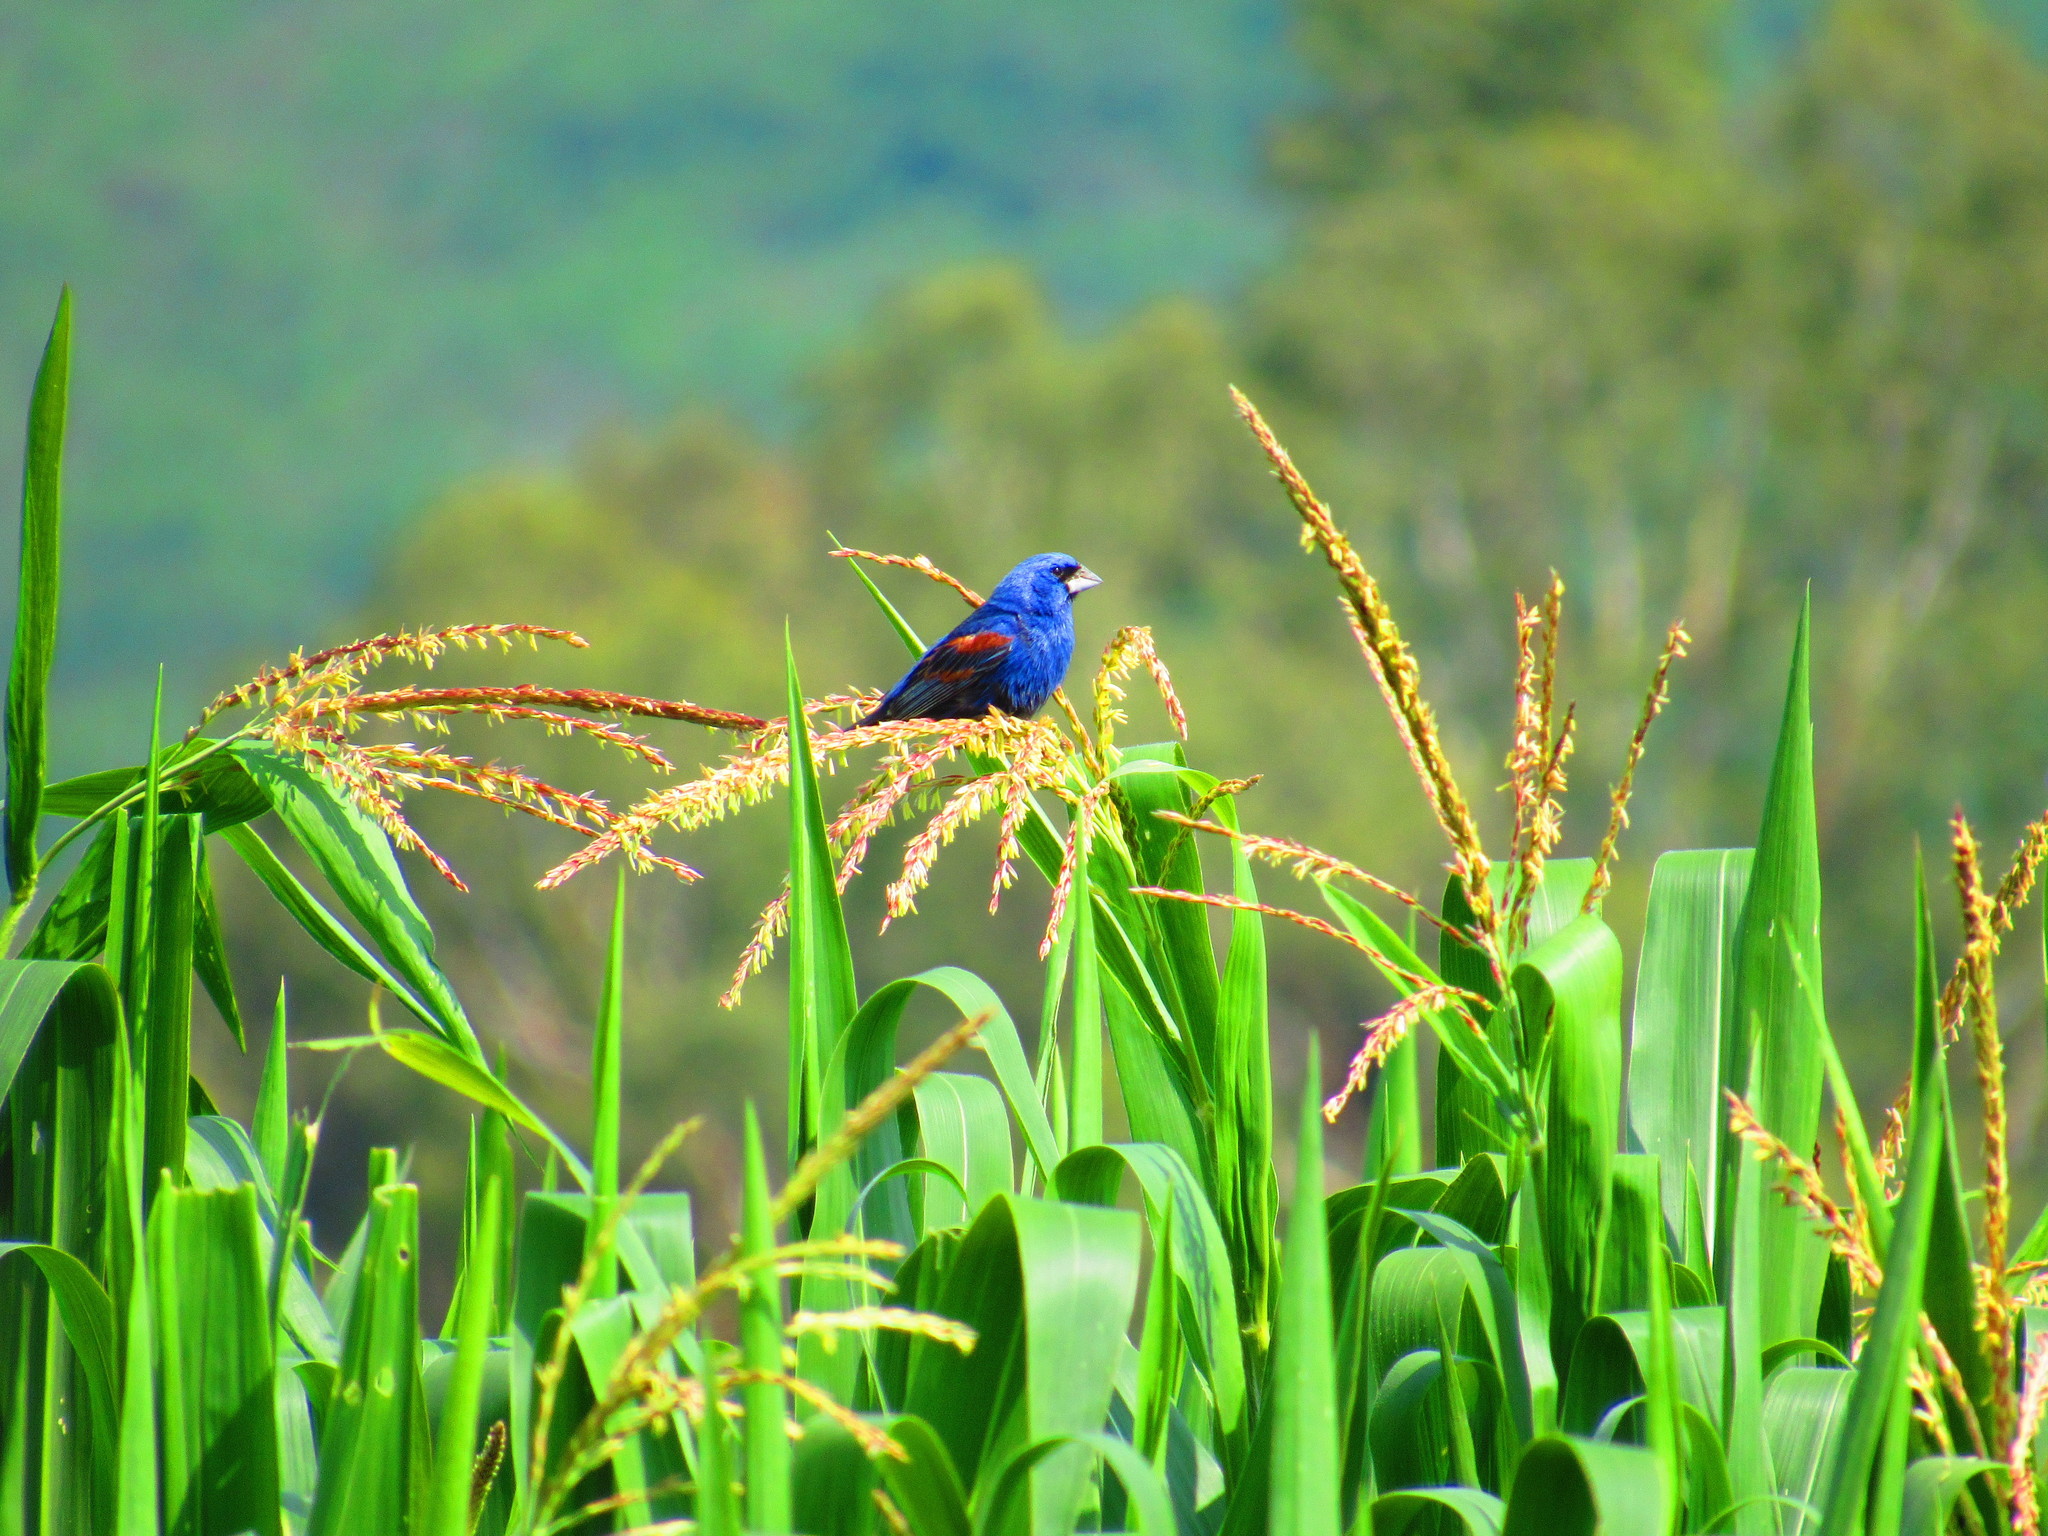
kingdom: Animalia
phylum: Chordata
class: Aves
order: Passeriformes
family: Cardinalidae
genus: Passerina
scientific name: Passerina caerulea
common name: Blue grosbeak
